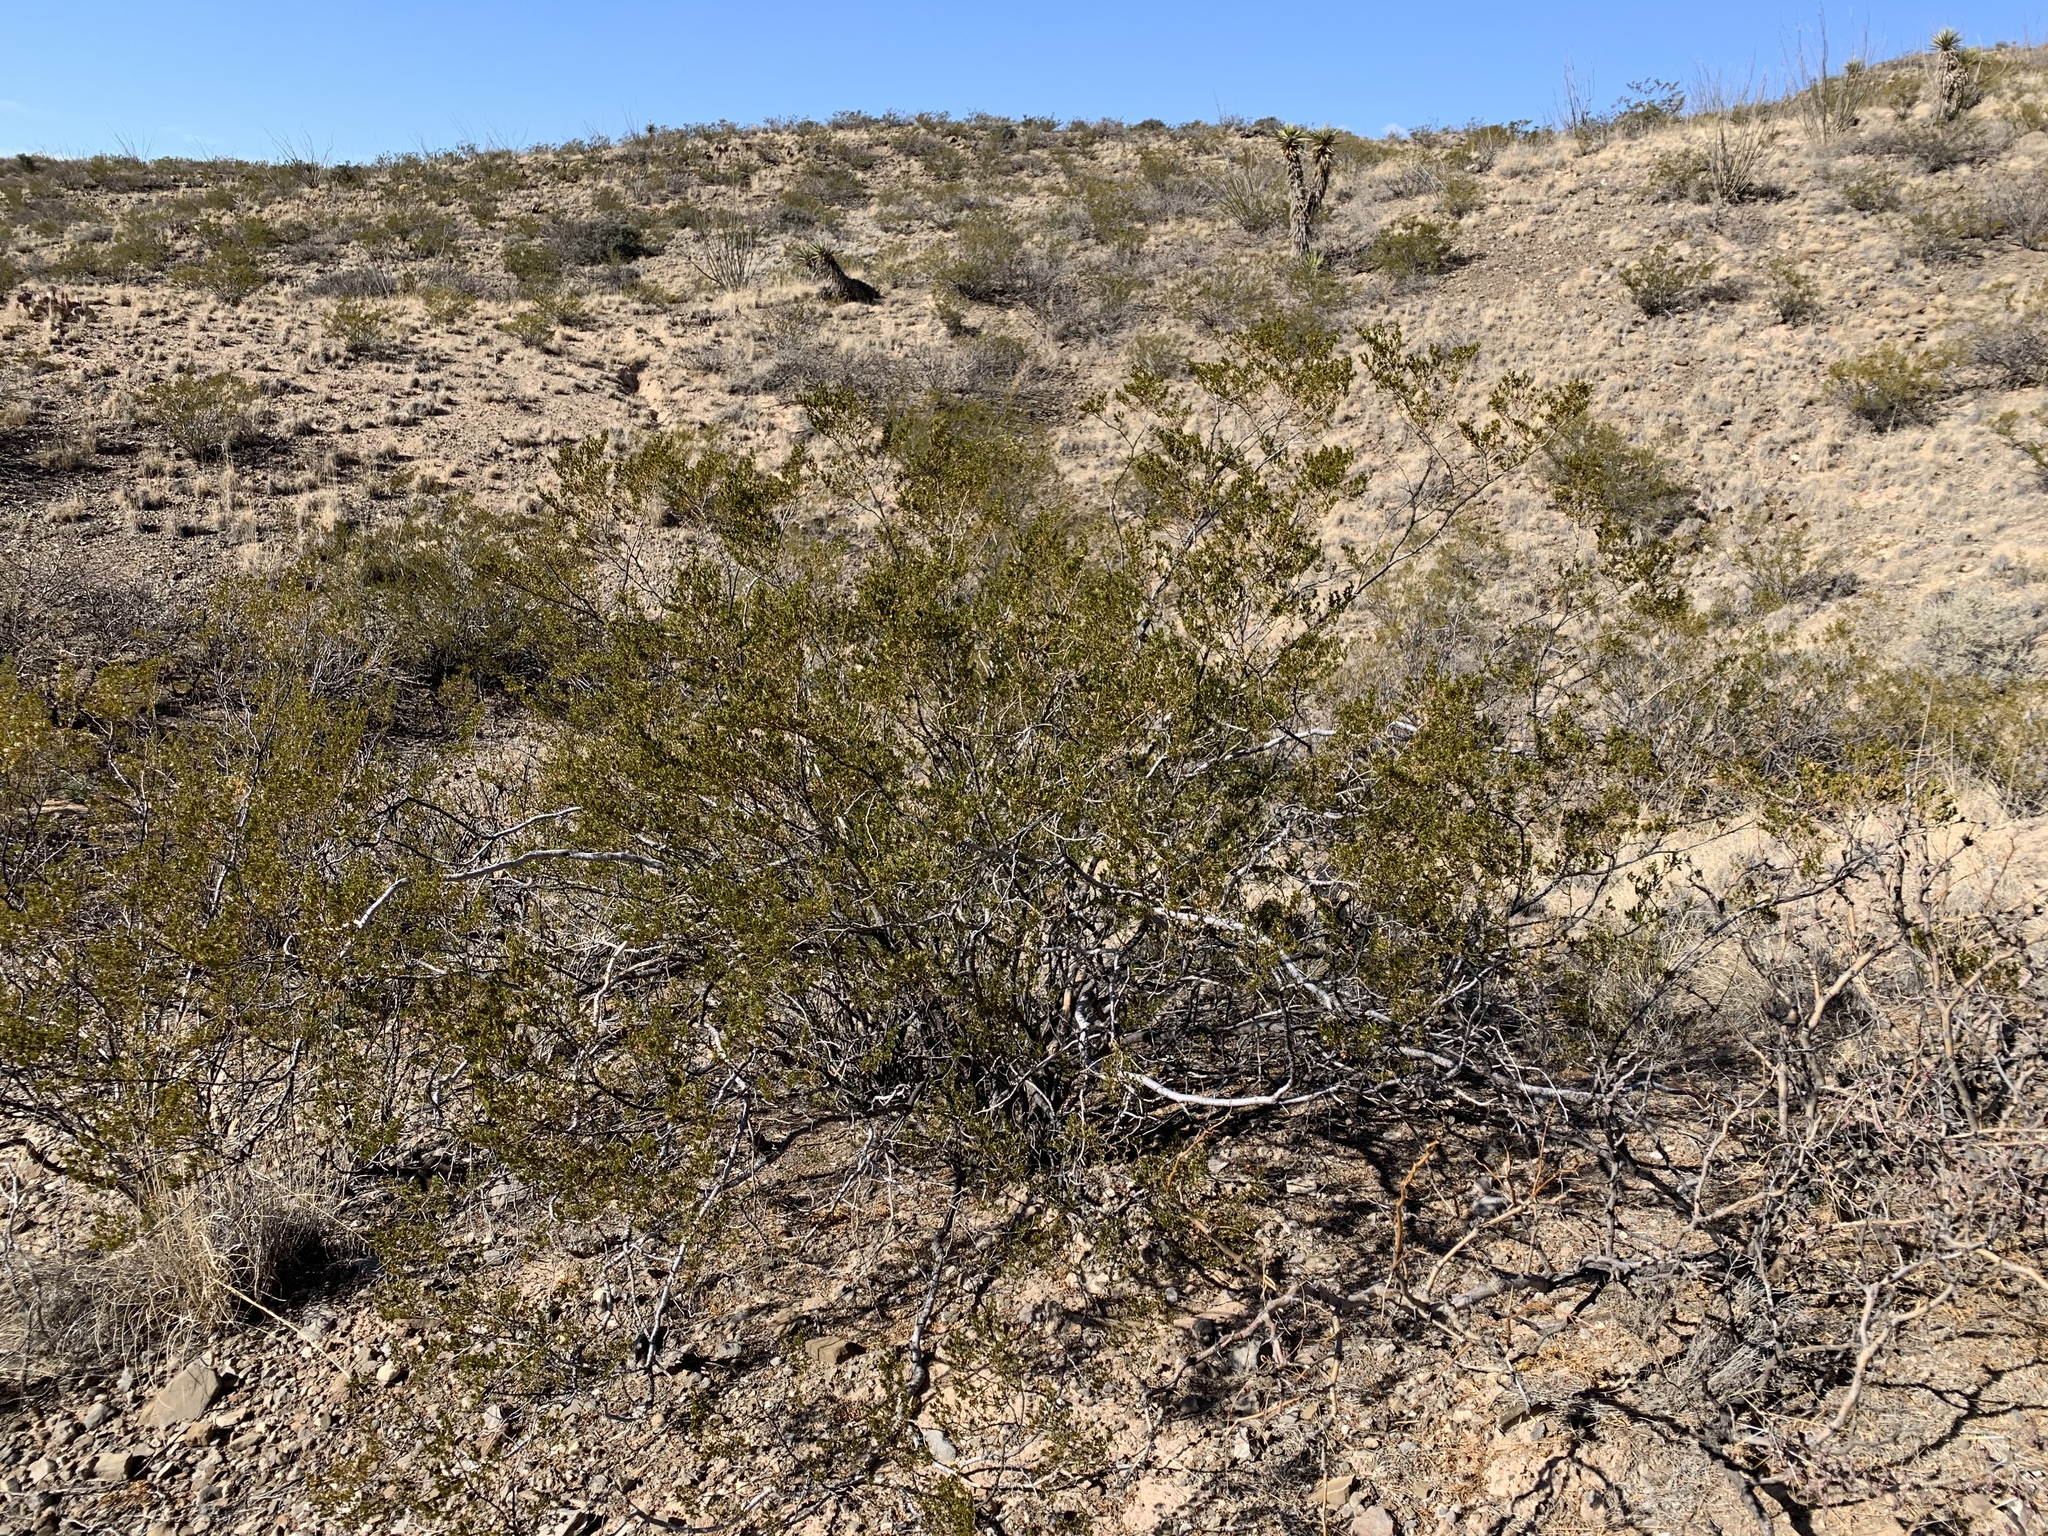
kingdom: Plantae
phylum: Tracheophyta
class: Magnoliopsida
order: Zygophyllales
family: Zygophyllaceae
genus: Larrea
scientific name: Larrea tridentata
